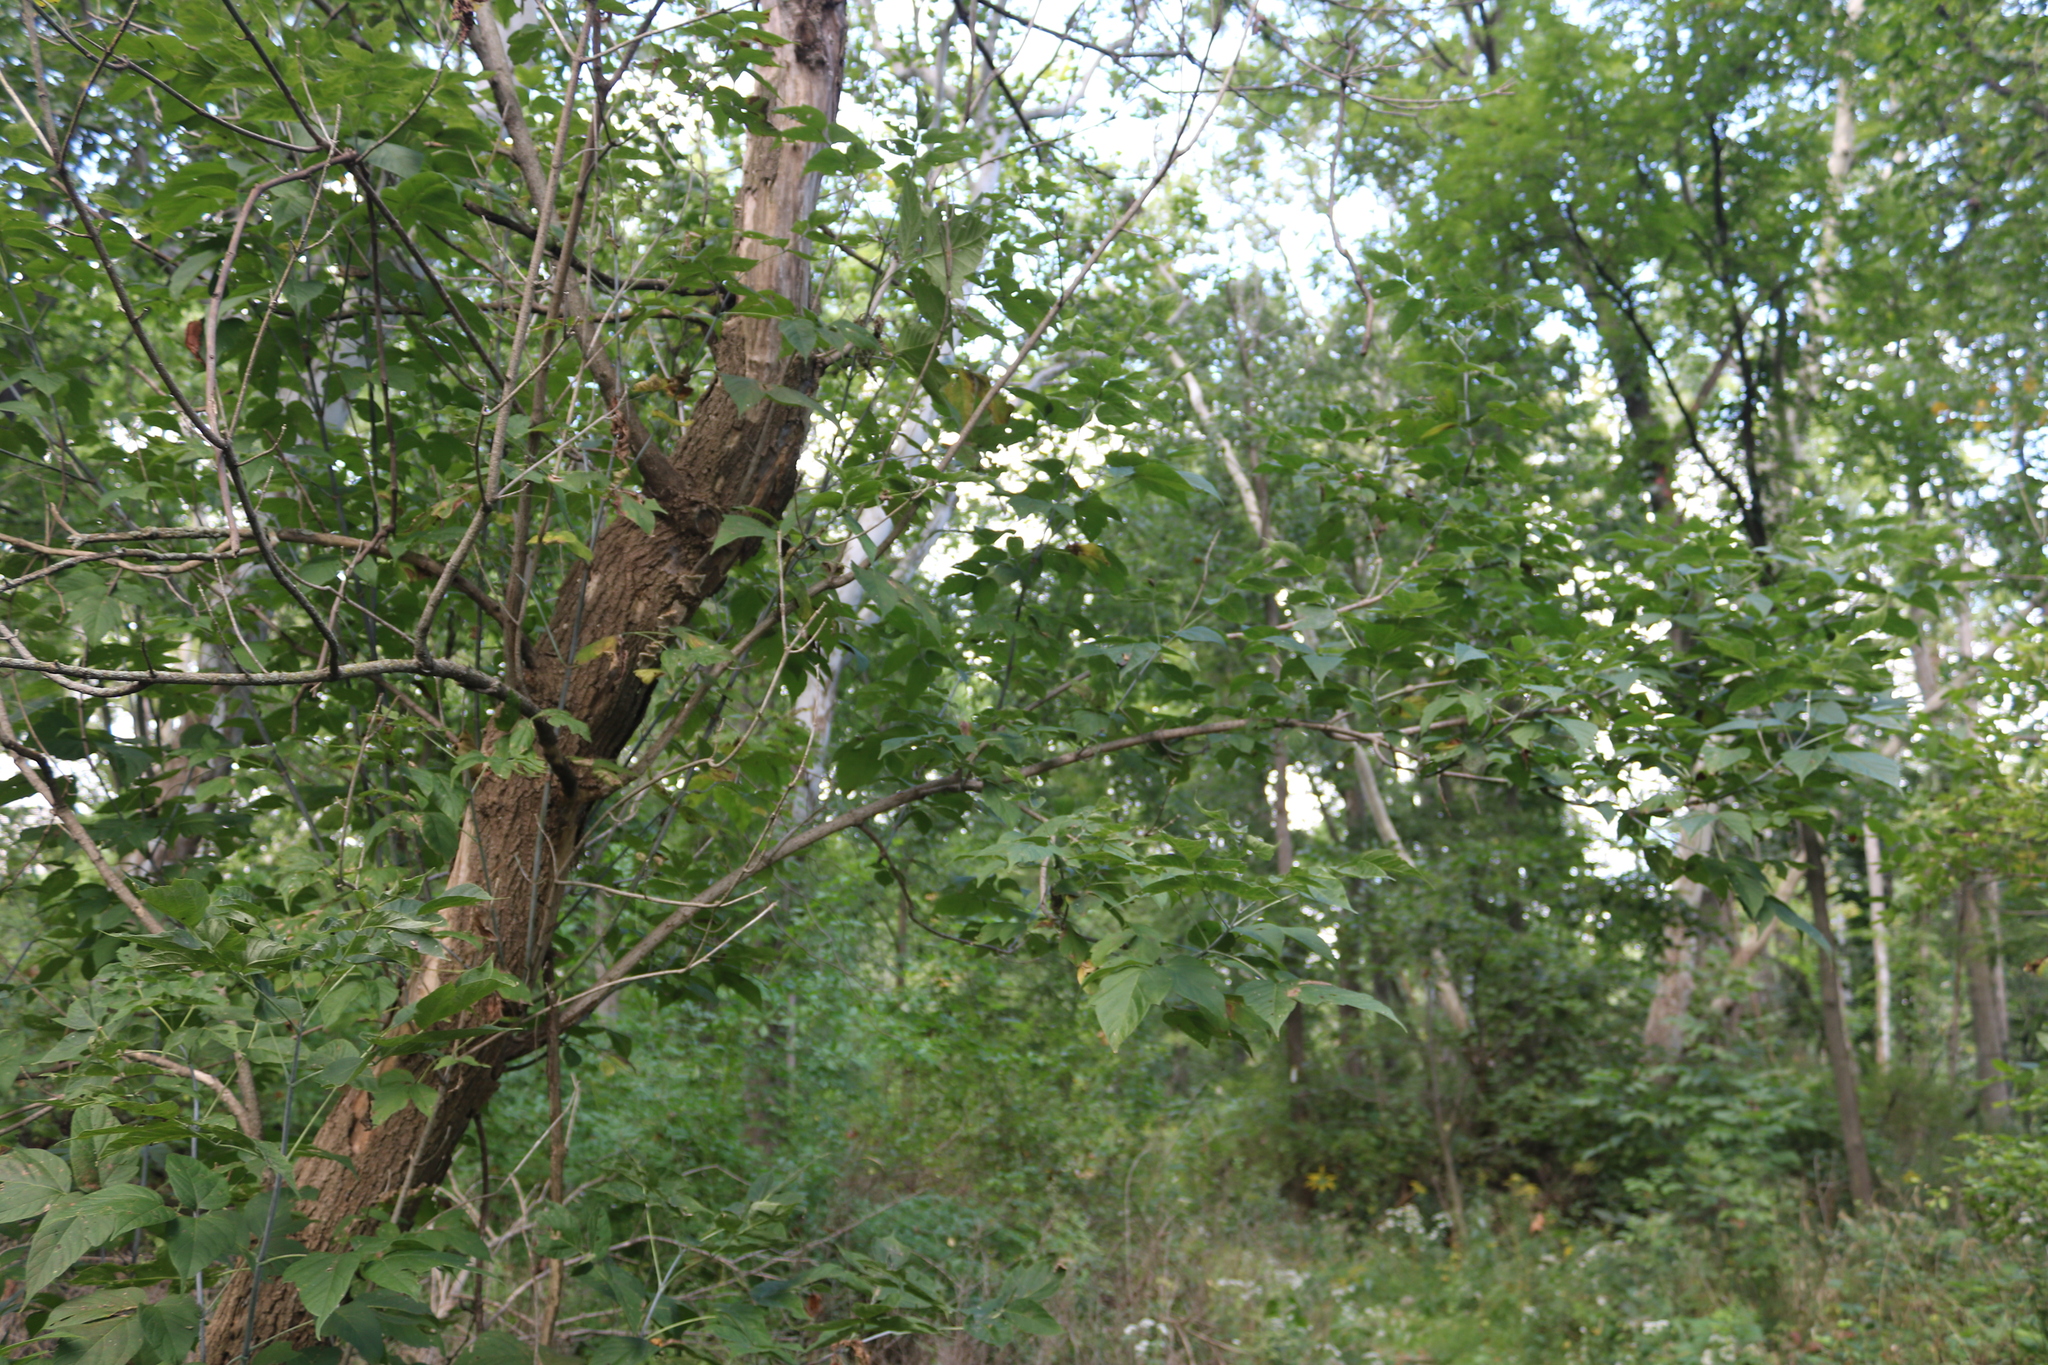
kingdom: Plantae
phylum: Tracheophyta
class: Magnoliopsida
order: Sapindales
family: Sapindaceae
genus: Acer
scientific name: Acer negundo
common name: Ashleaf maple
